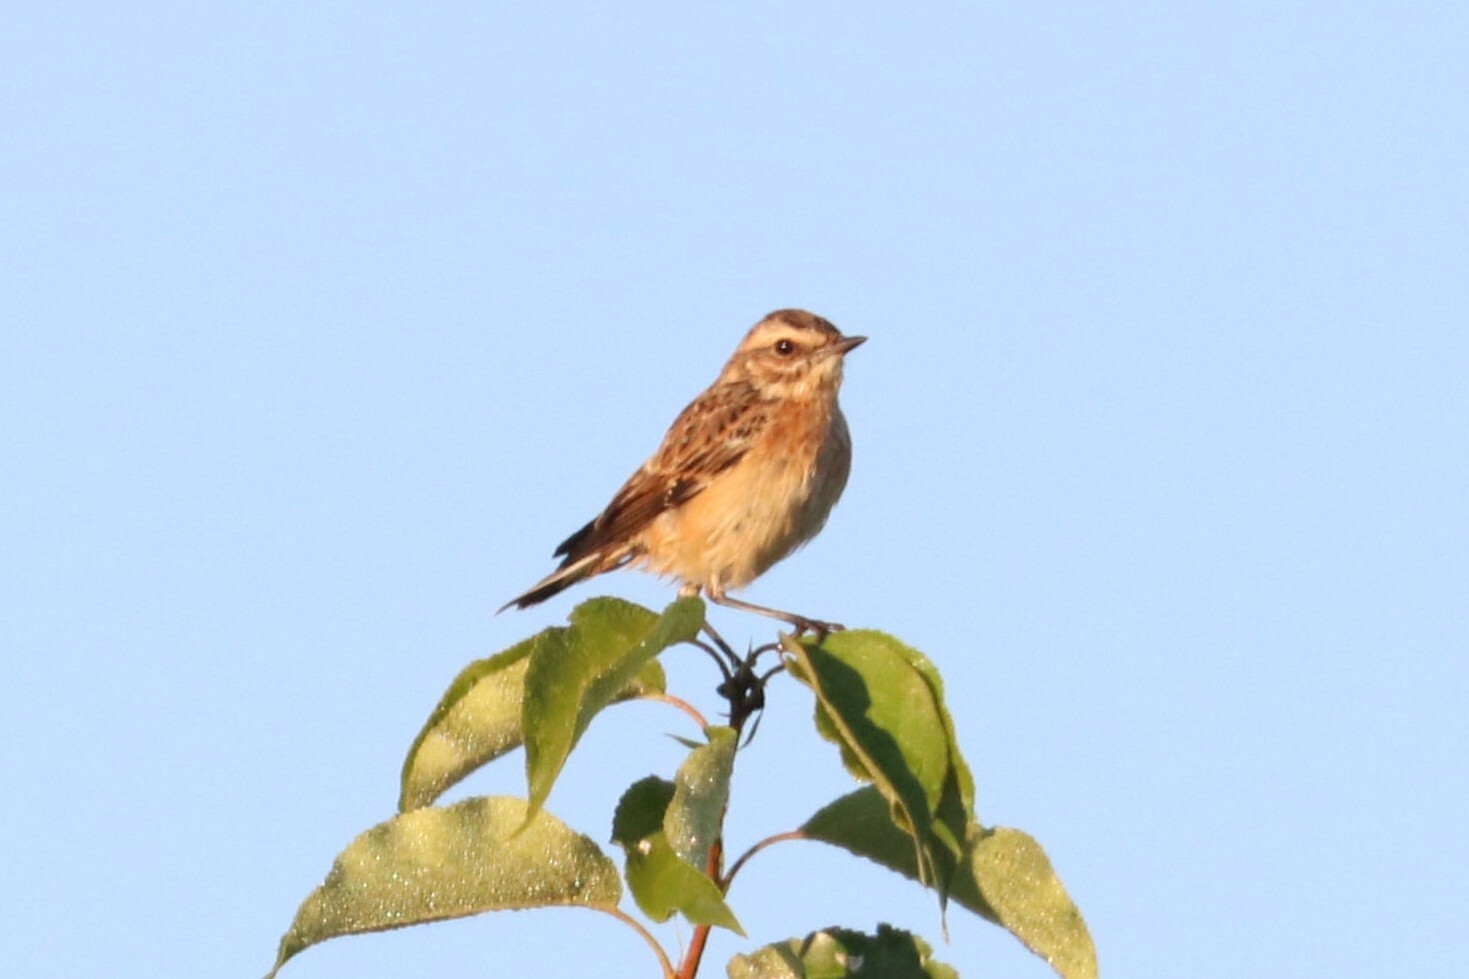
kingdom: Animalia
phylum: Chordata
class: Aves
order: Passeriformes
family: Muscicapidae
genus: Saxicola
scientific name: Saxicola rubetra
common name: Whinchat
